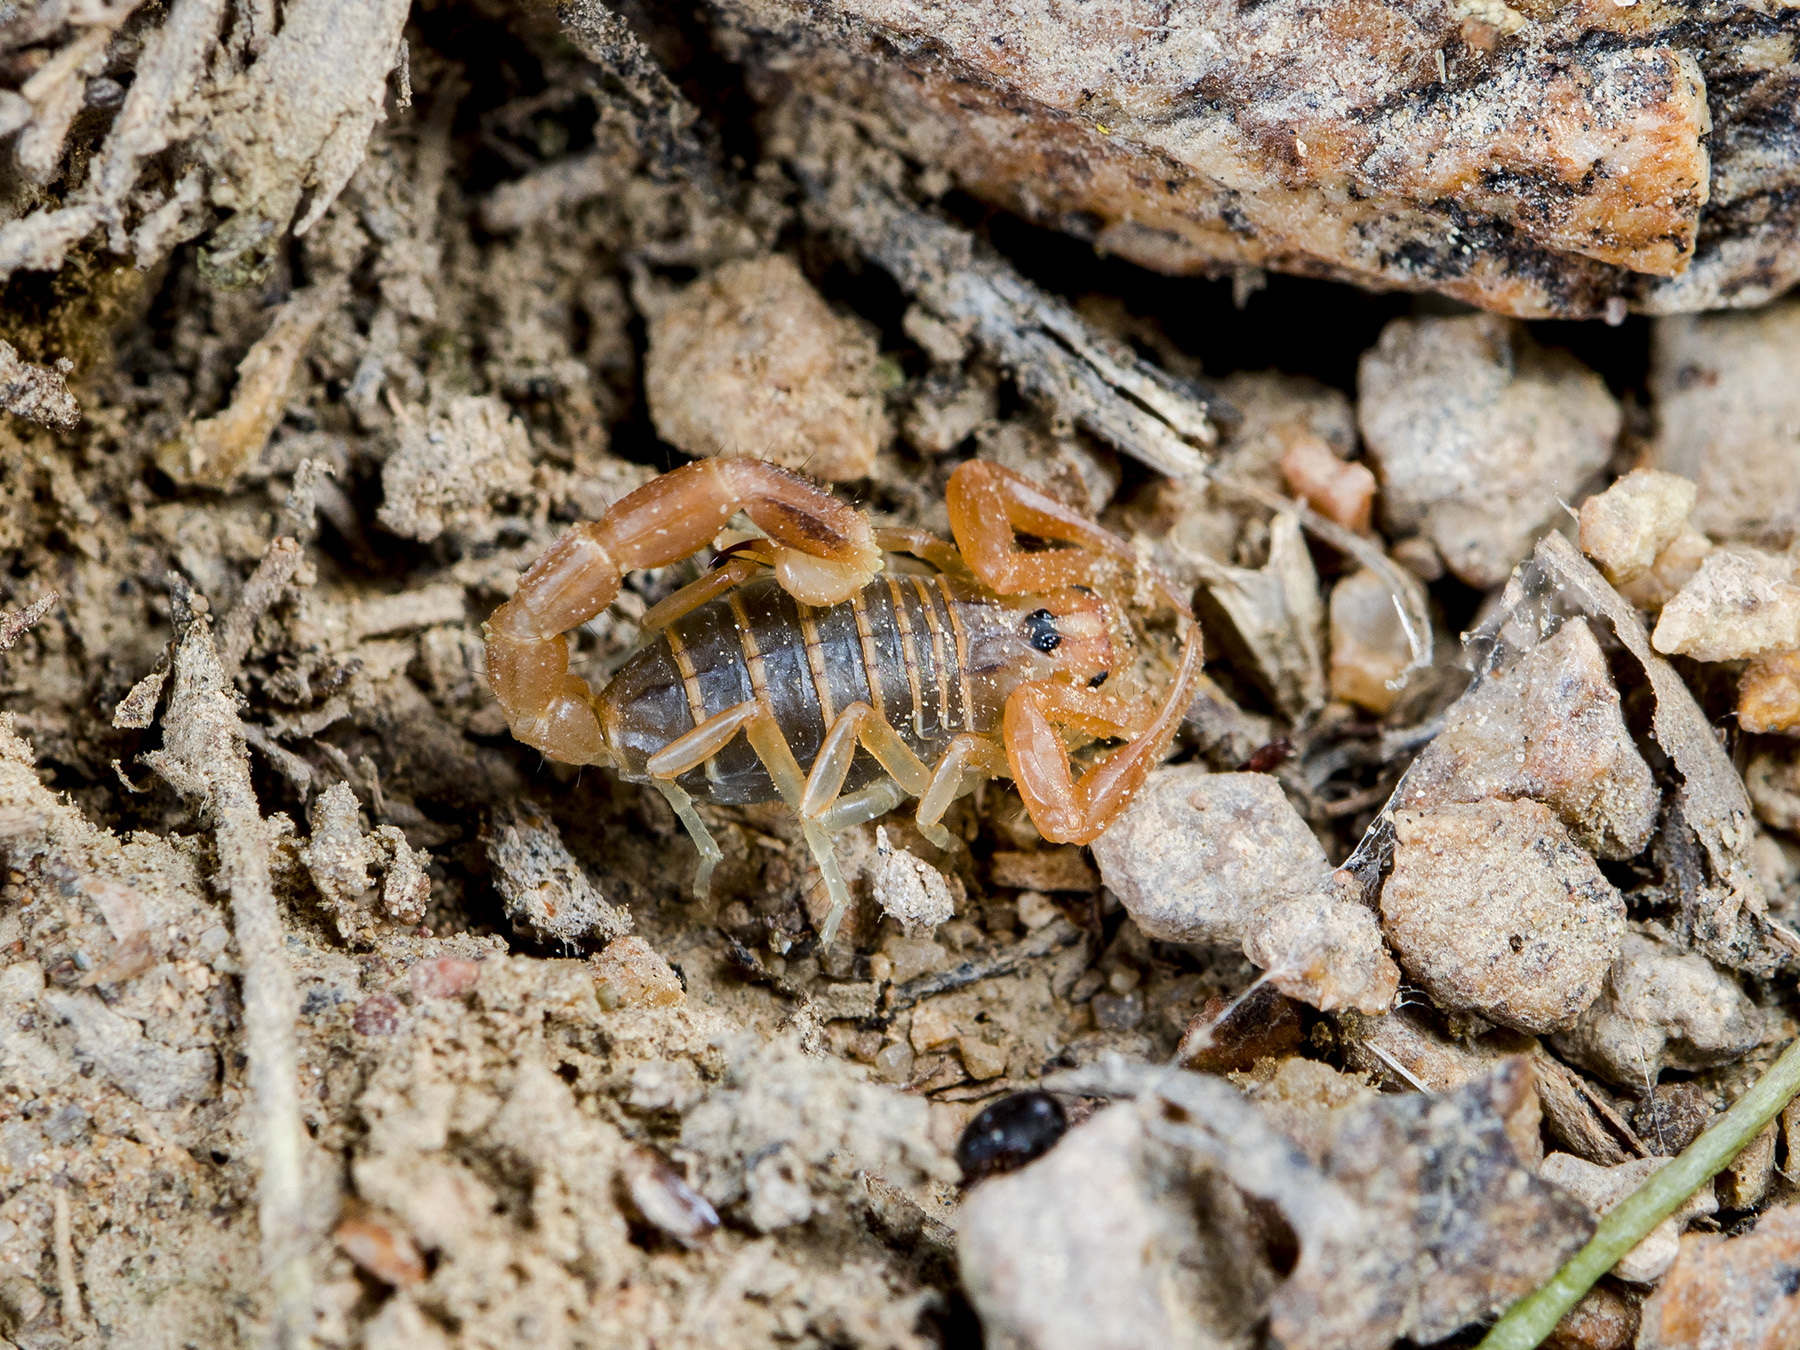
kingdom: Animalia
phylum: Arthropoda
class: Arachnida
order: Scorpiones
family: Buthidae
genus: Olivierus
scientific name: Olivierus caucasicus
